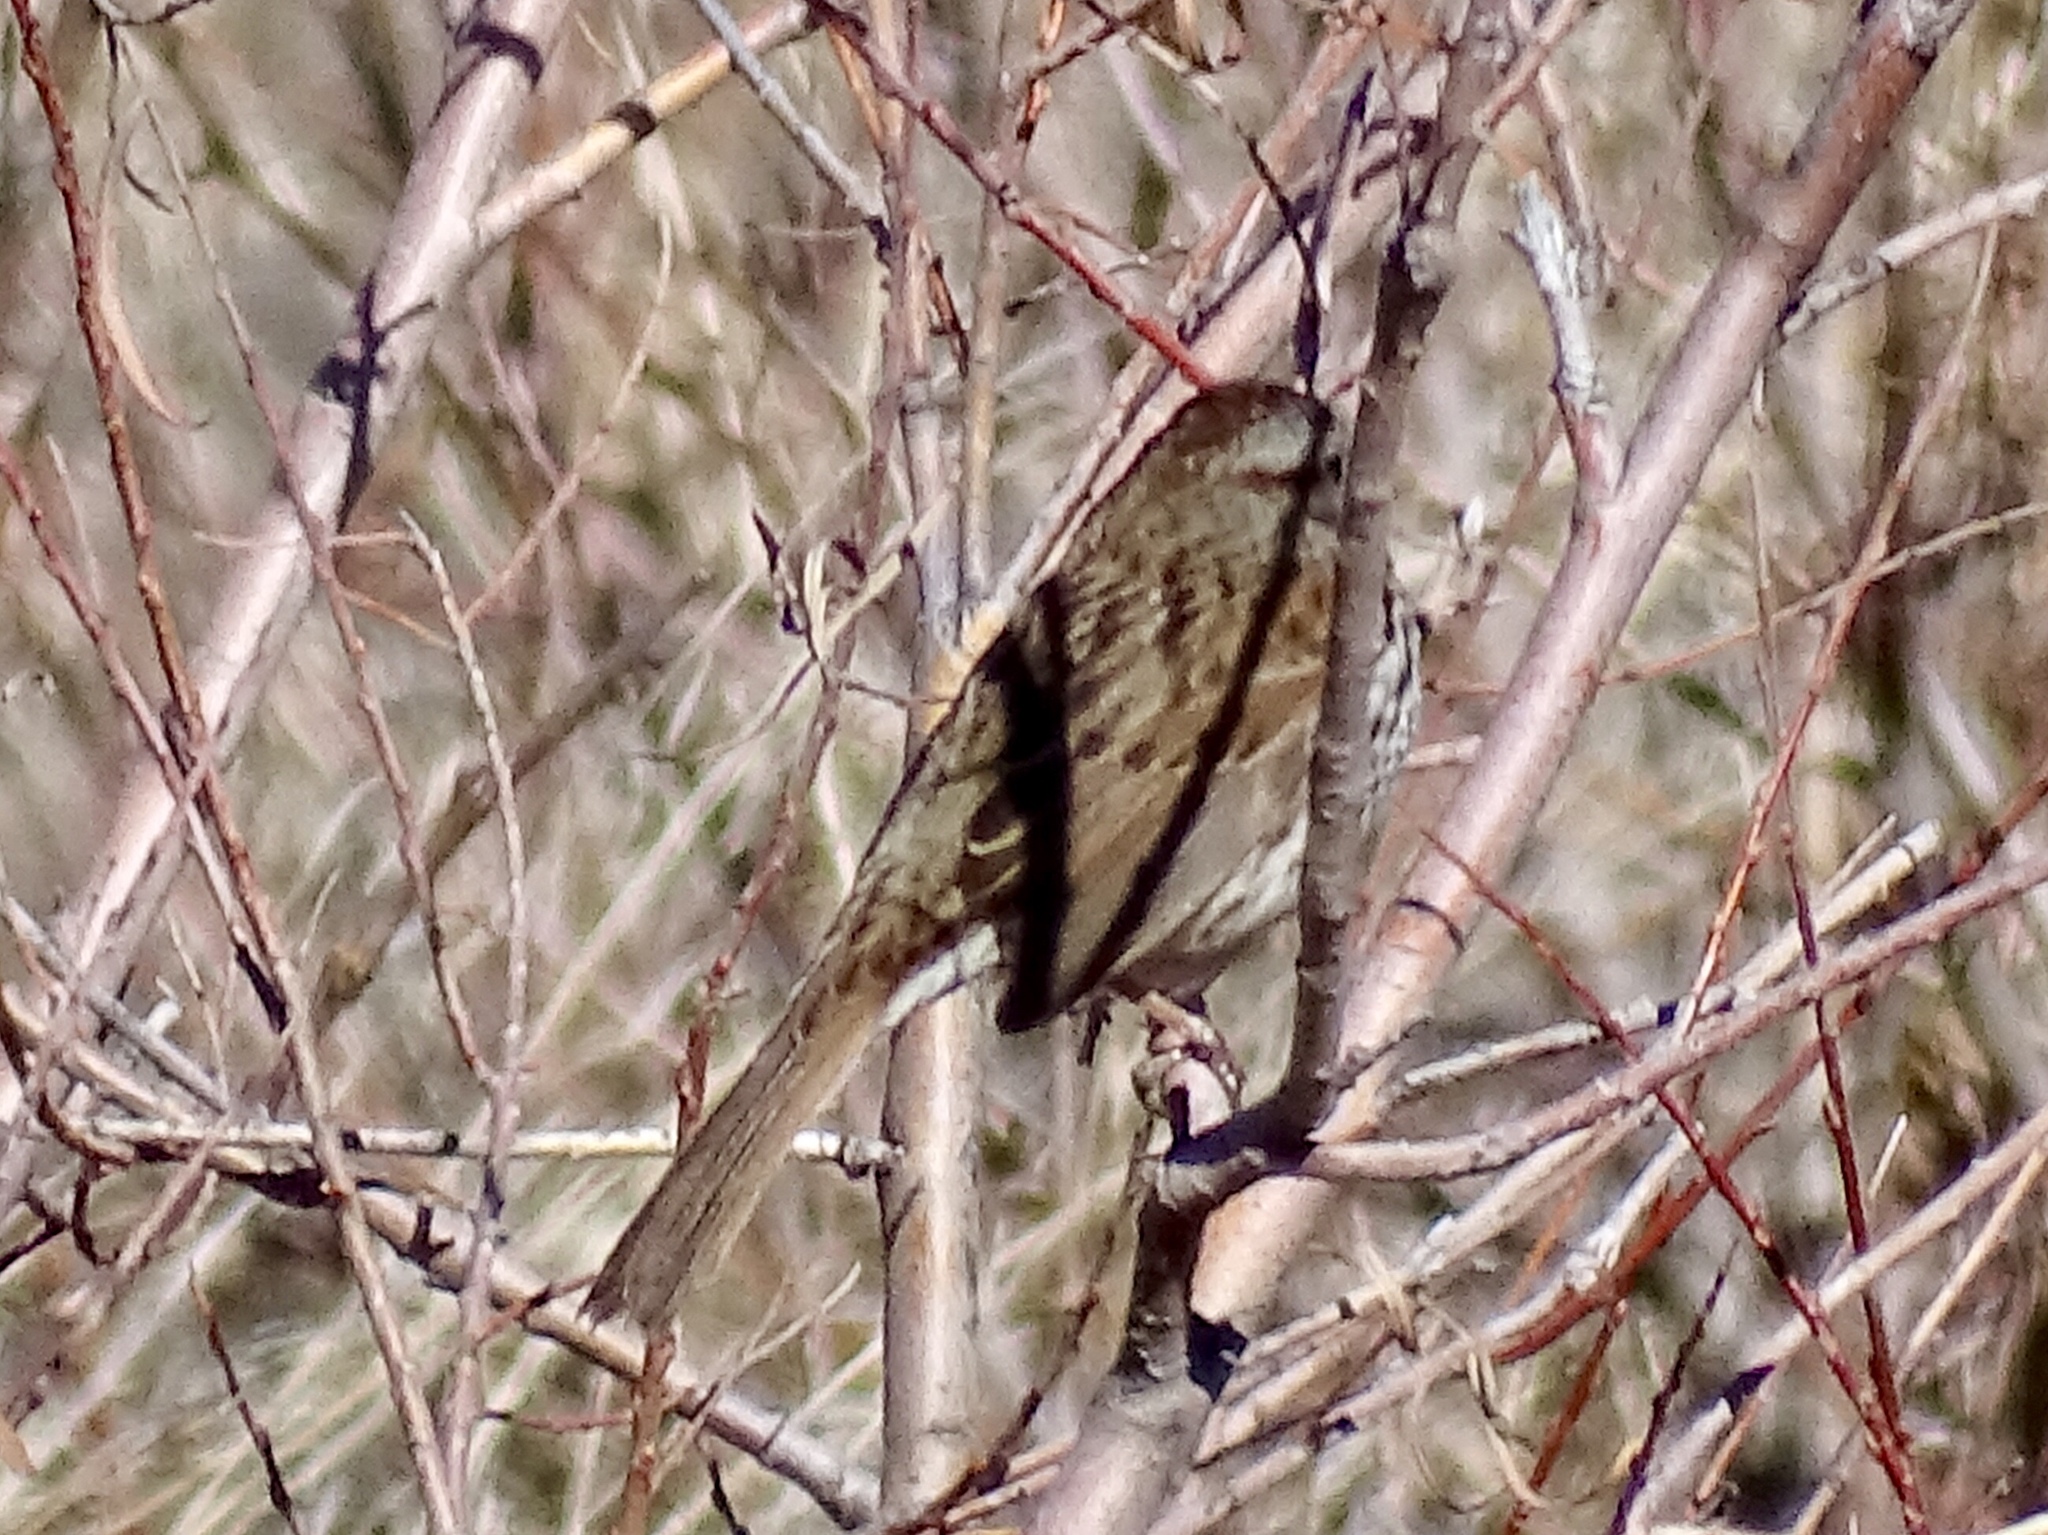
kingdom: Animalia
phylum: Chordata
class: Aves
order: Passeriformes
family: Passerellidae
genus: Melospiza
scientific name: Melospiza melodia
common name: Song sparrow
